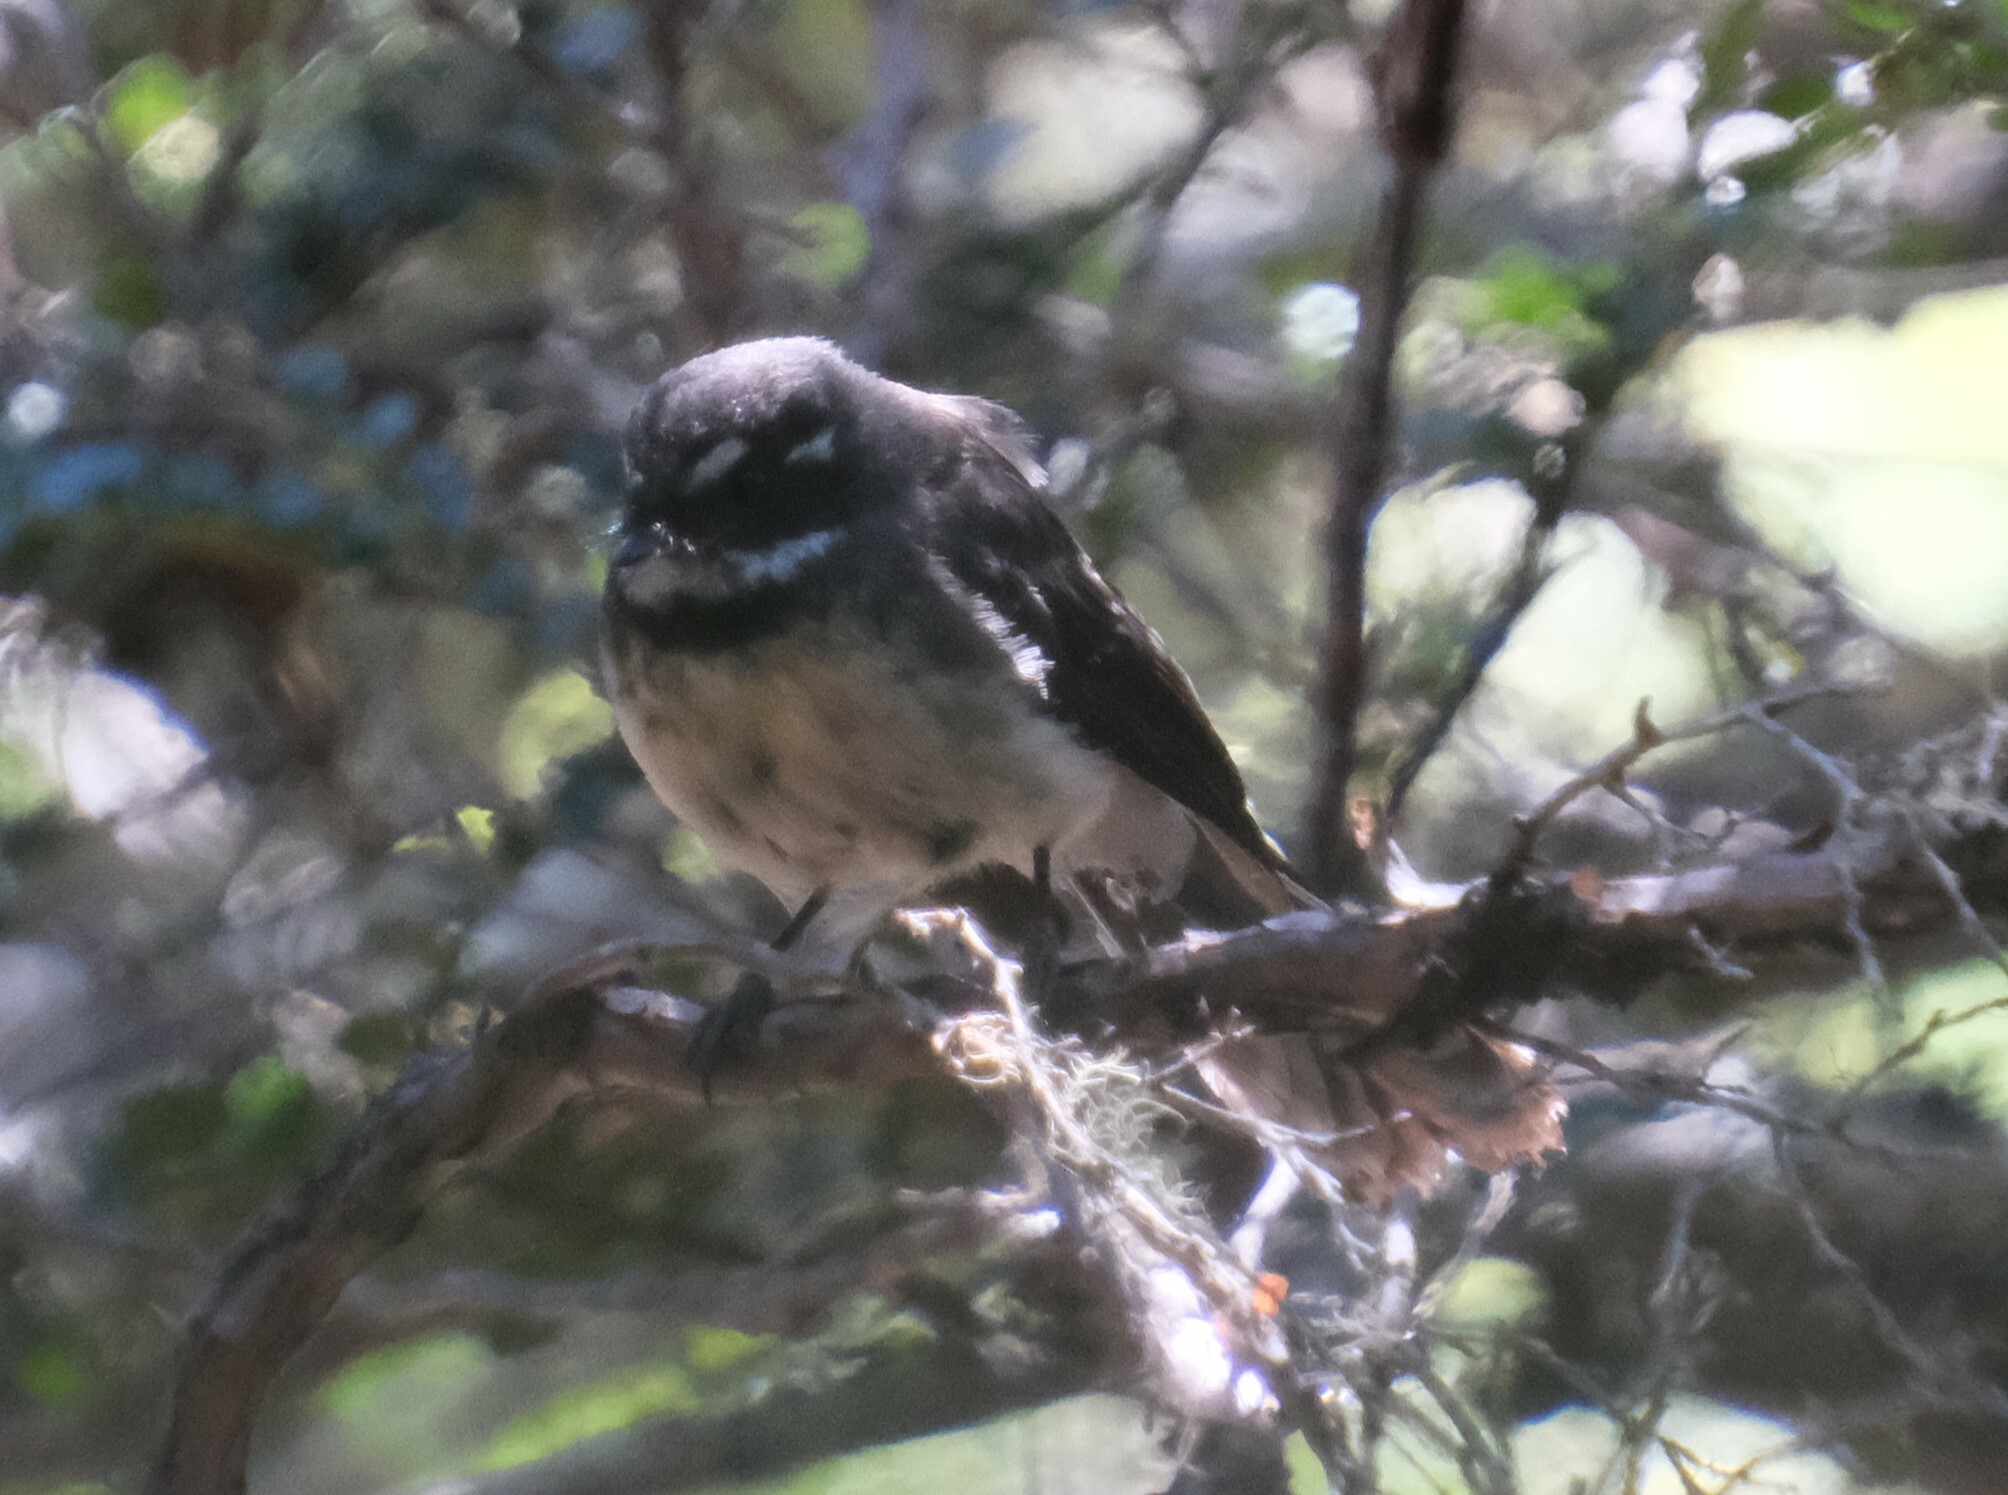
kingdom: Animalia
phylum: Chordata
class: Aves
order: Passeriformes
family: Rhipiduridae
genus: Rhipidura
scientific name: Rhipidura albiscapa
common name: Grey fantail
